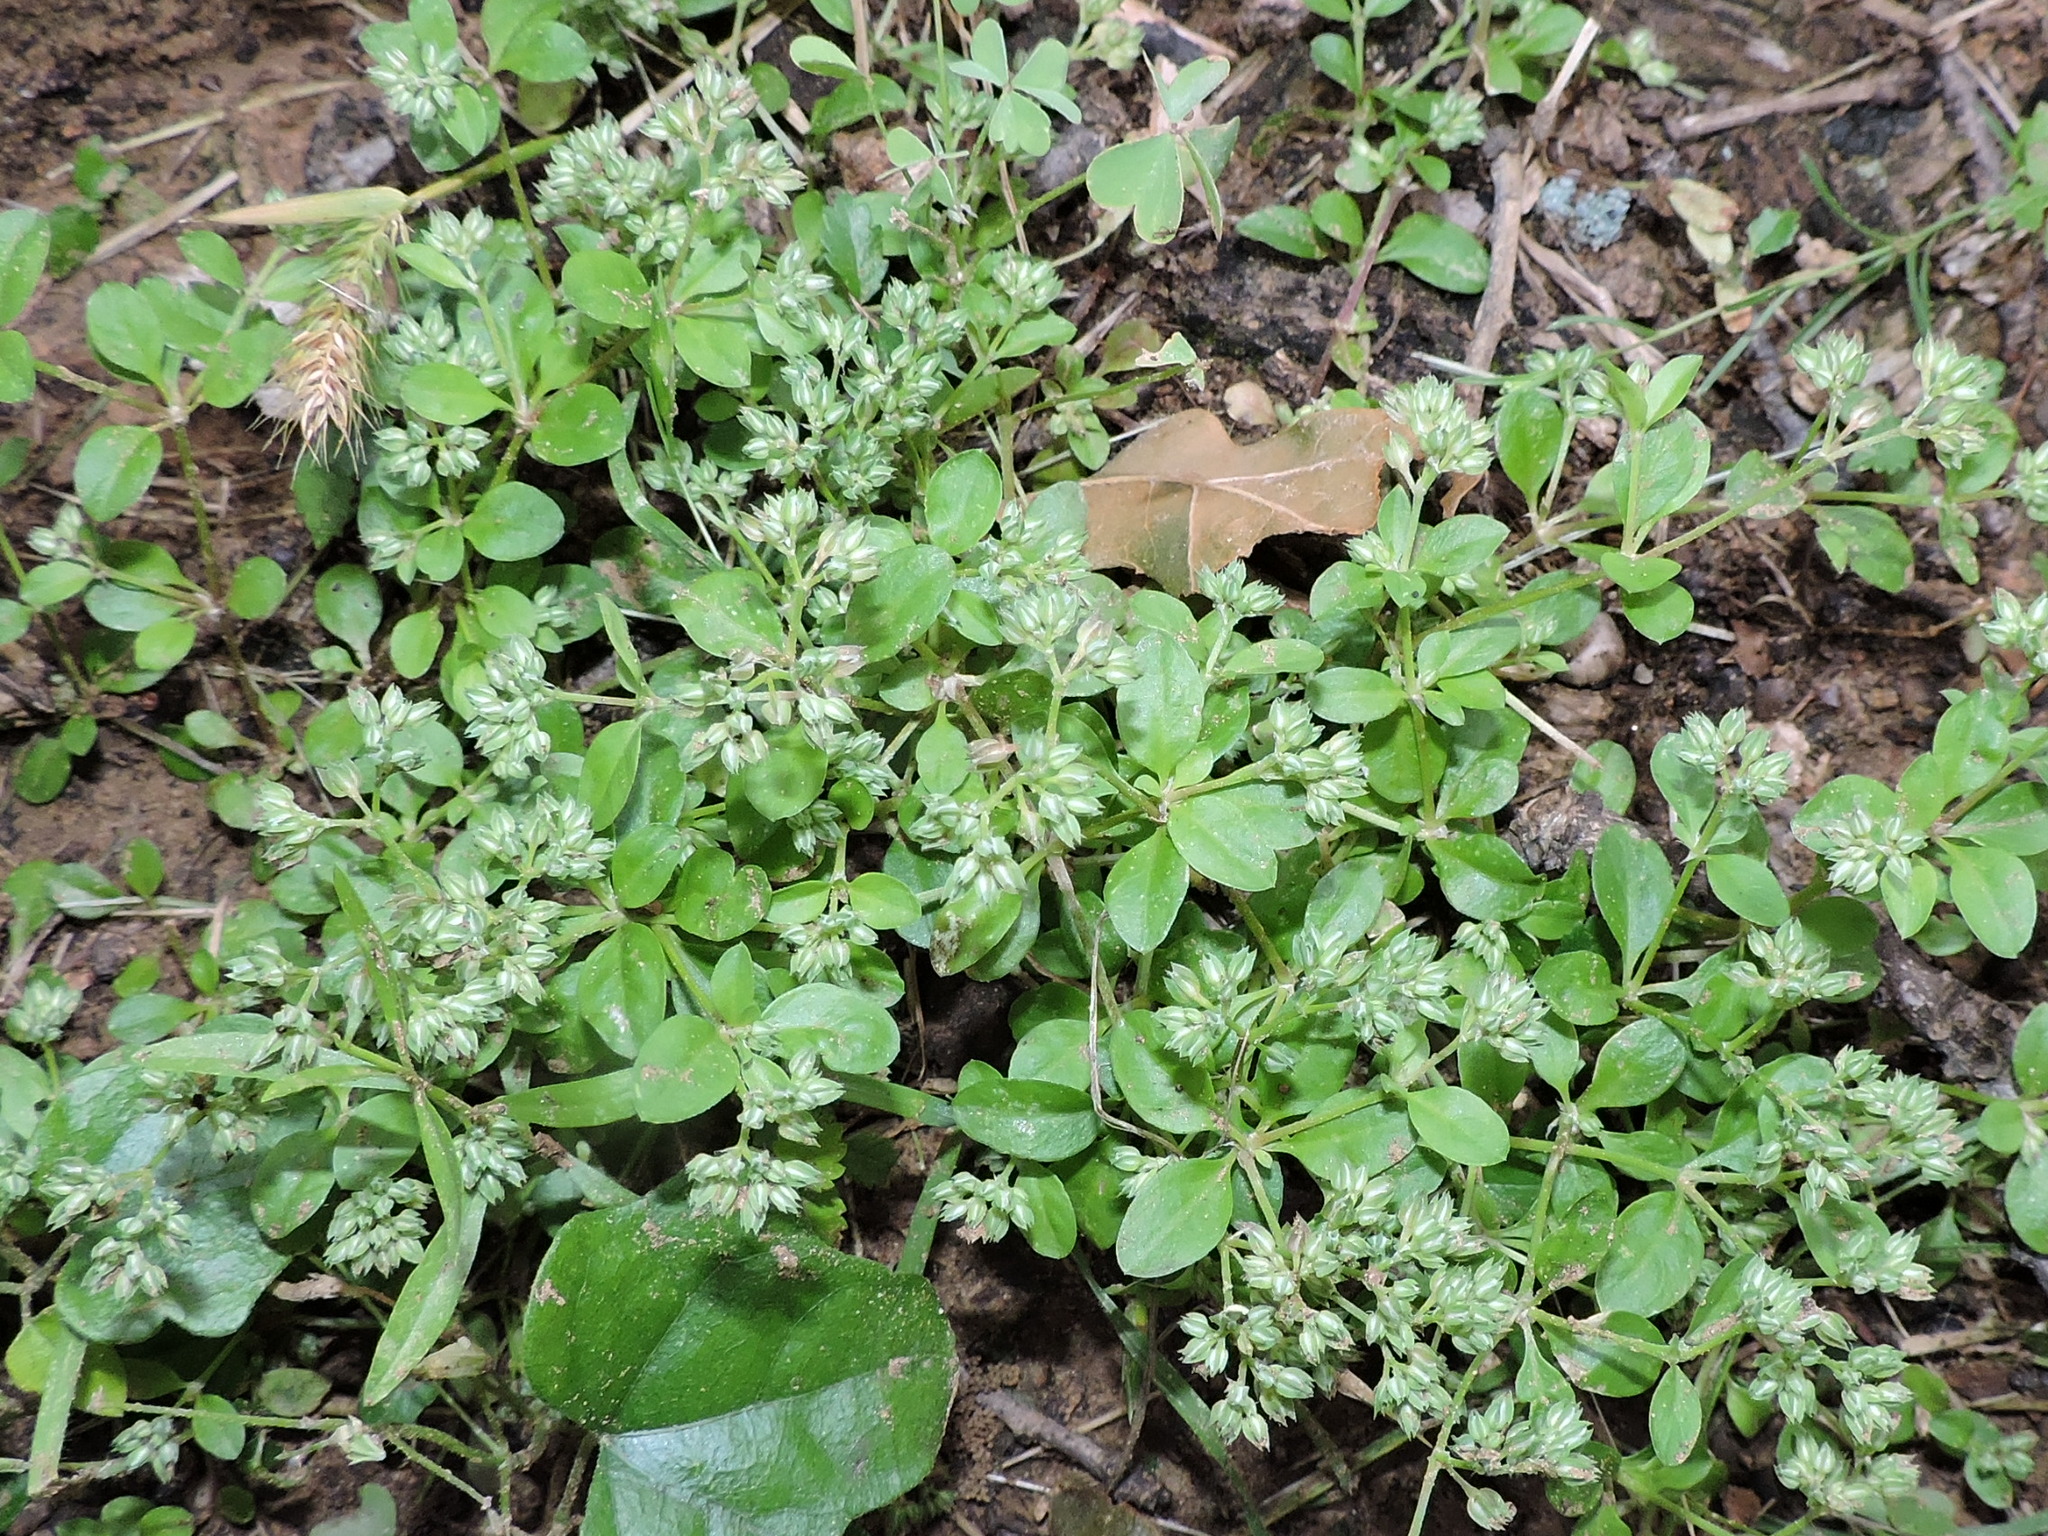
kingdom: Plantae
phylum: Tracheophyta
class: Magnoliopsida
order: Caryophyllales
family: Caryophyllaceae
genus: Polycarpon
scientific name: Polycarpon tetraphyllum
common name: Four-leaved all-seed
